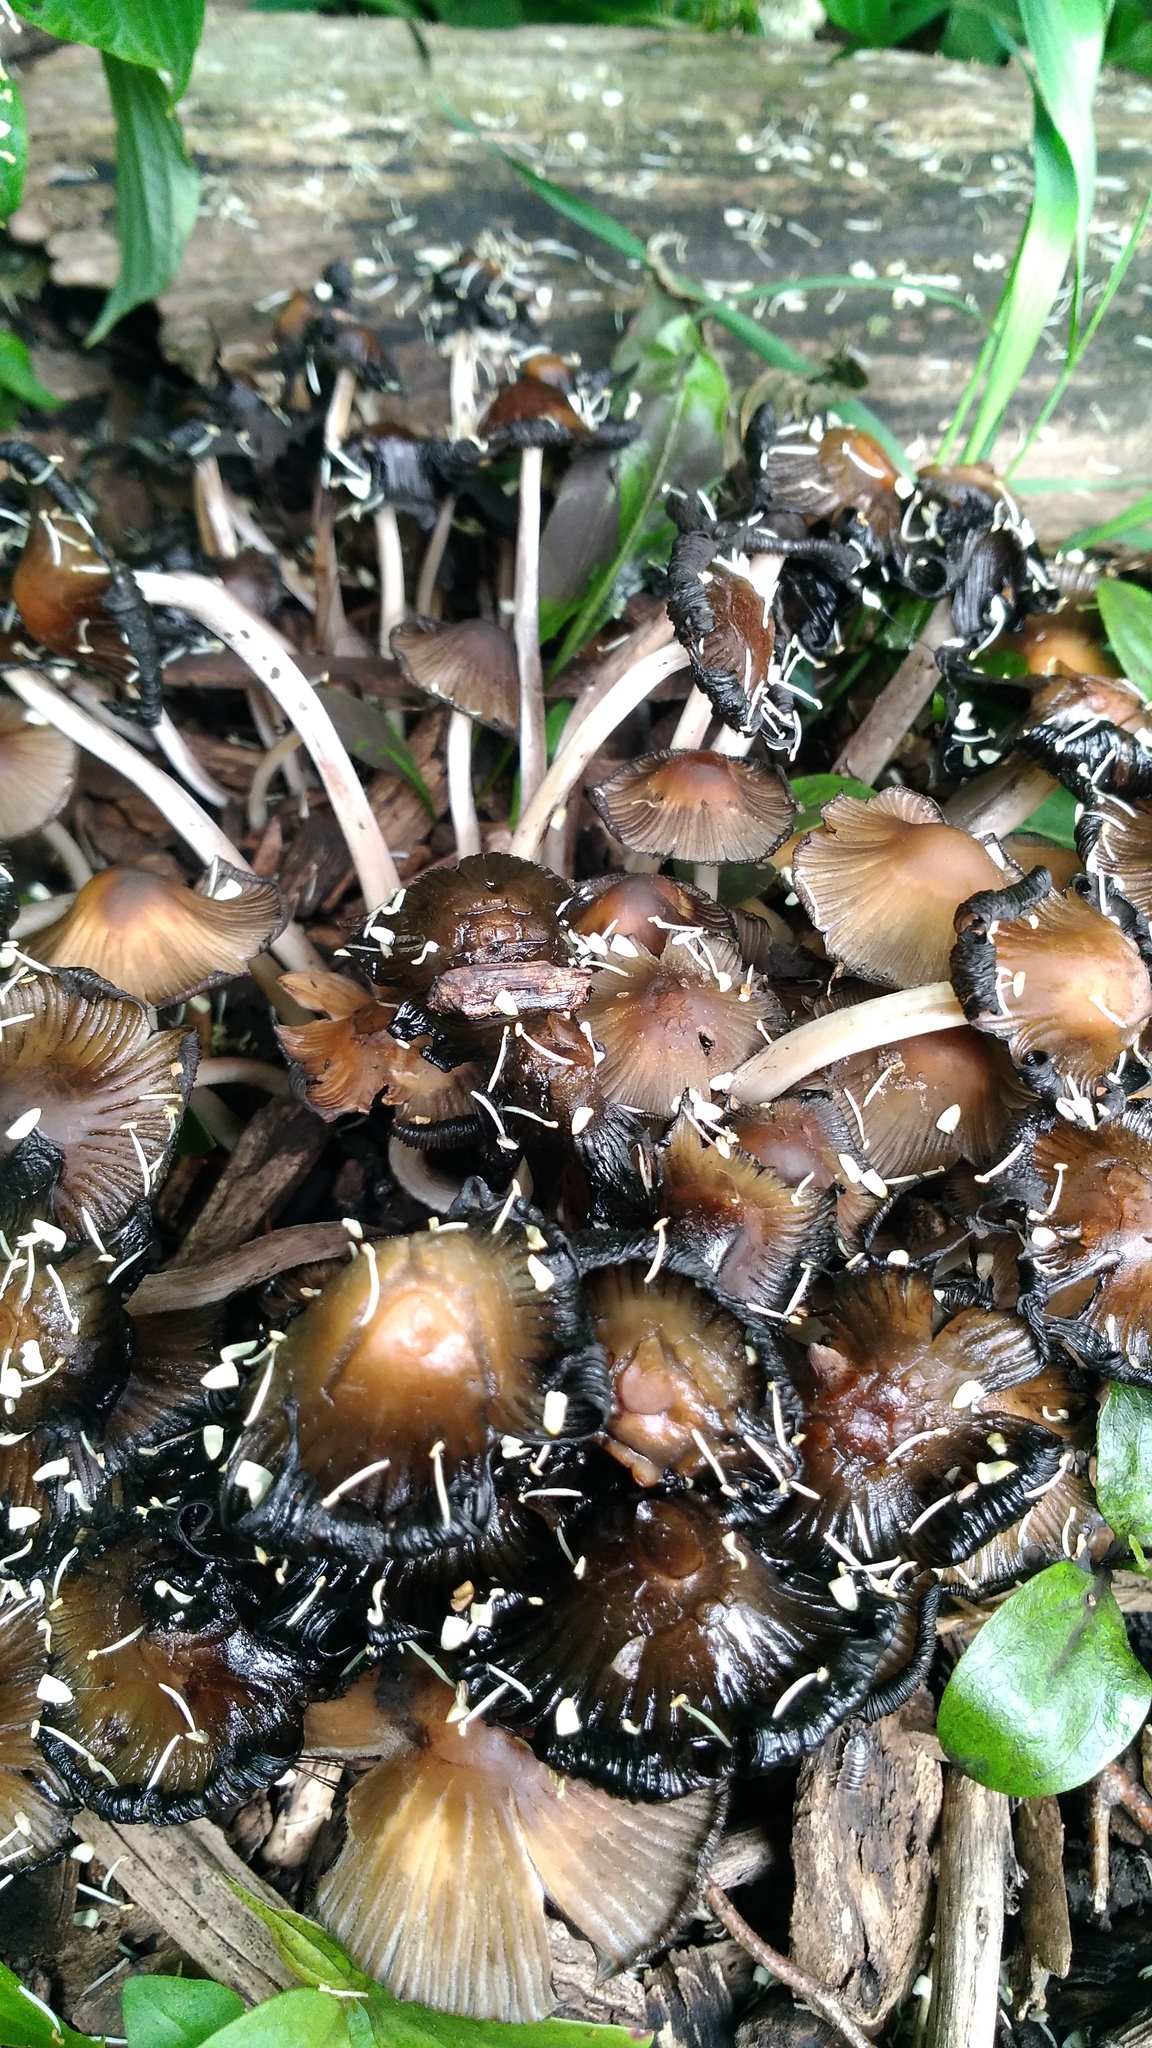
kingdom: Fungi
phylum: Basidiomycota
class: Agaricomycetes
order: Agaricales
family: Psathyrellaceae
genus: Coprinellus
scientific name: Coprinellus micaceus
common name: Glistening ink-cap
